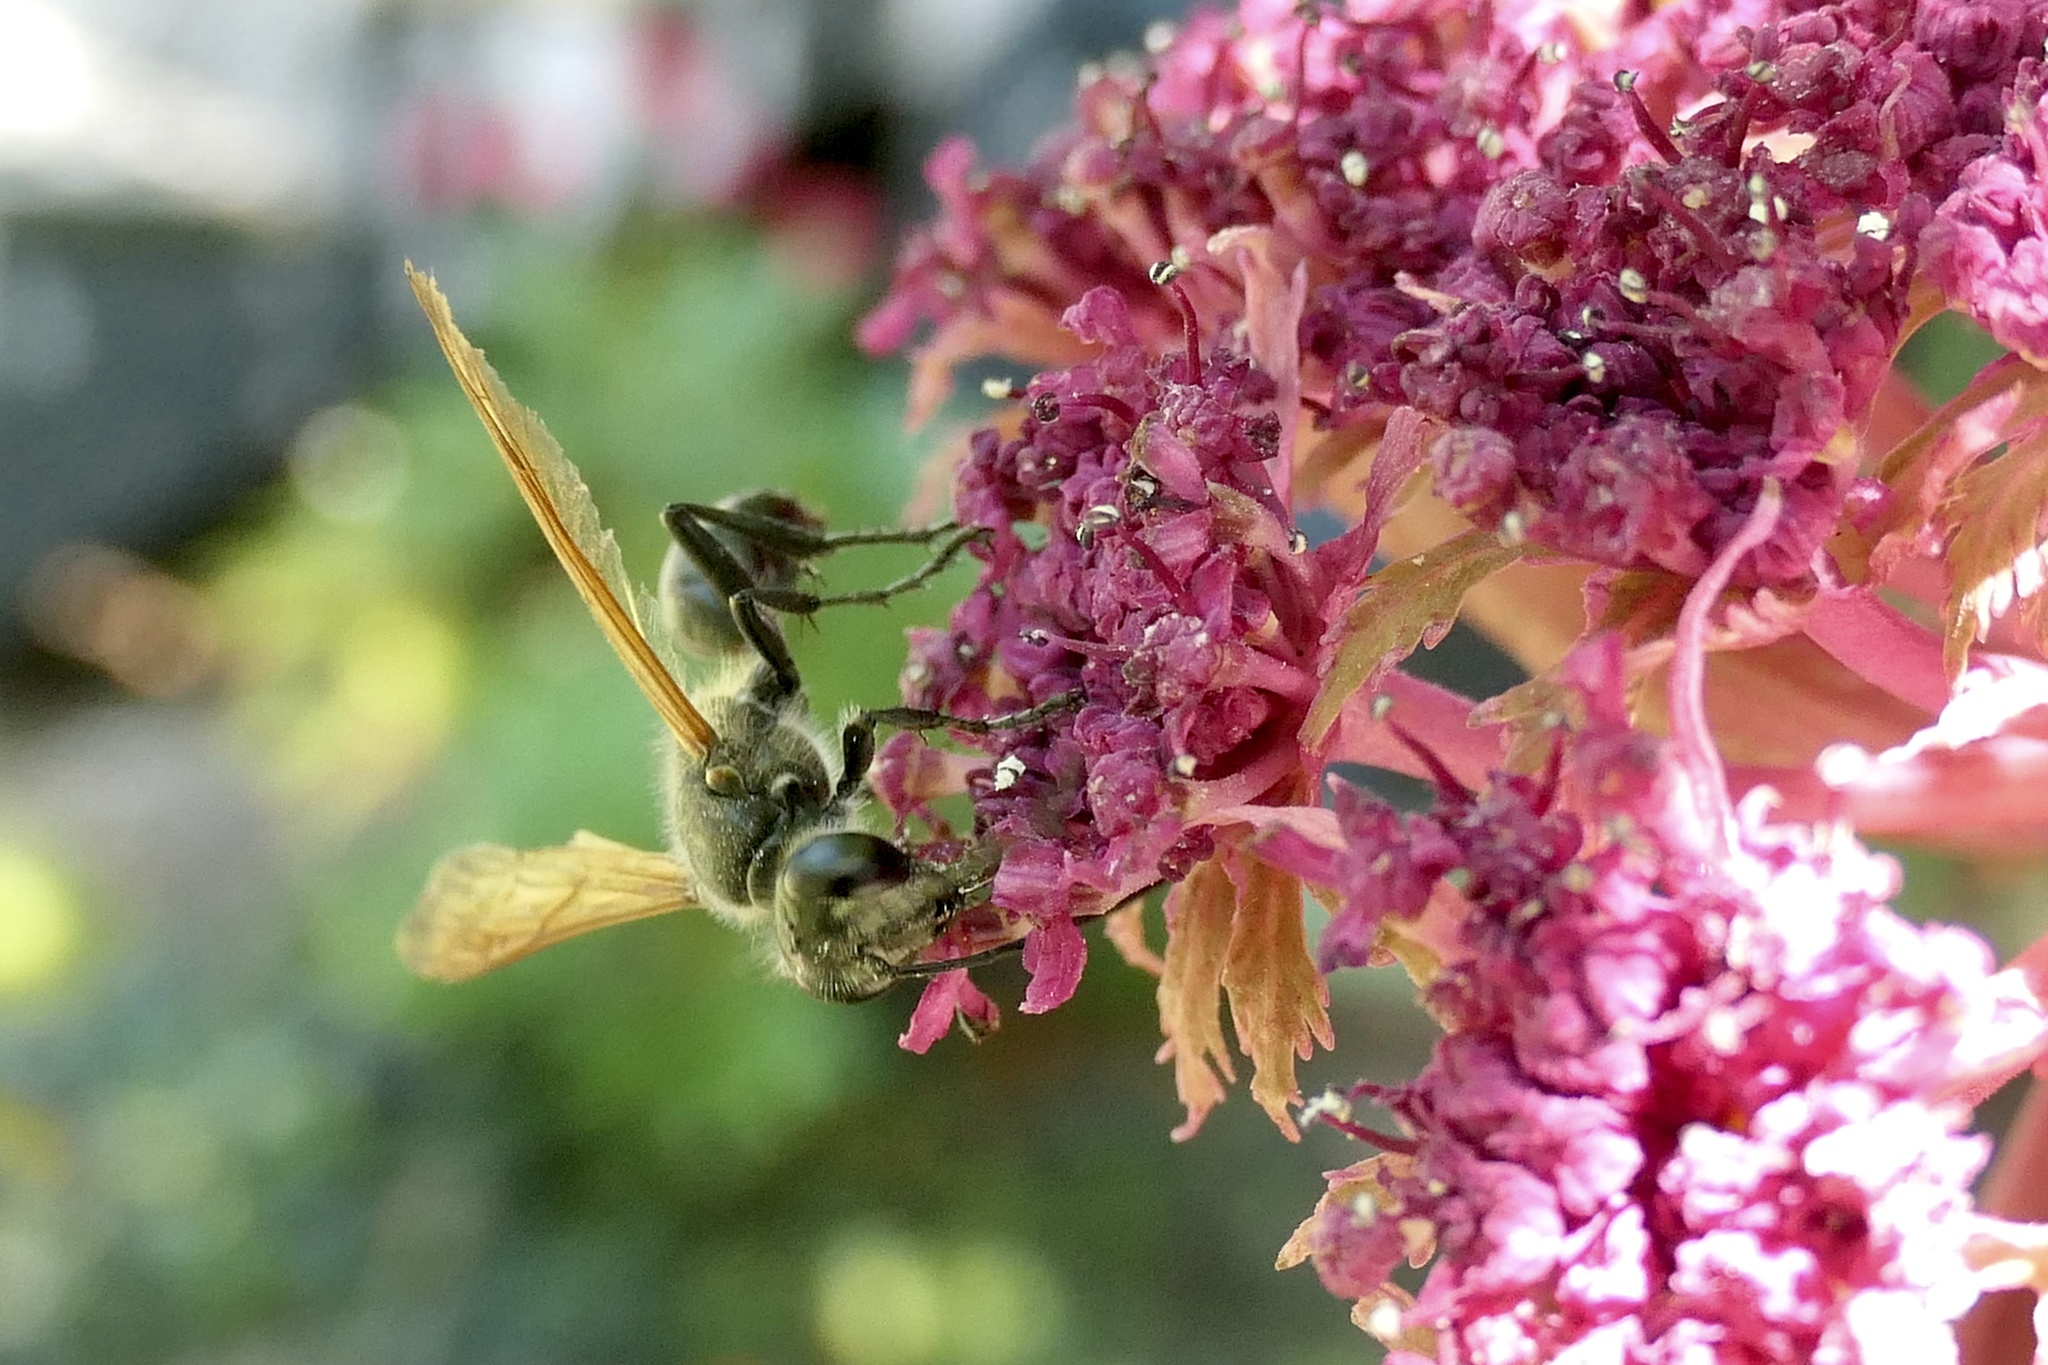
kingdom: Animalia
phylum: Arthropoda
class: Insecta
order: Hymenoptera
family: Sphecidae
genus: Isodontia
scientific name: Isodontia mexicana
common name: Mud dauber
